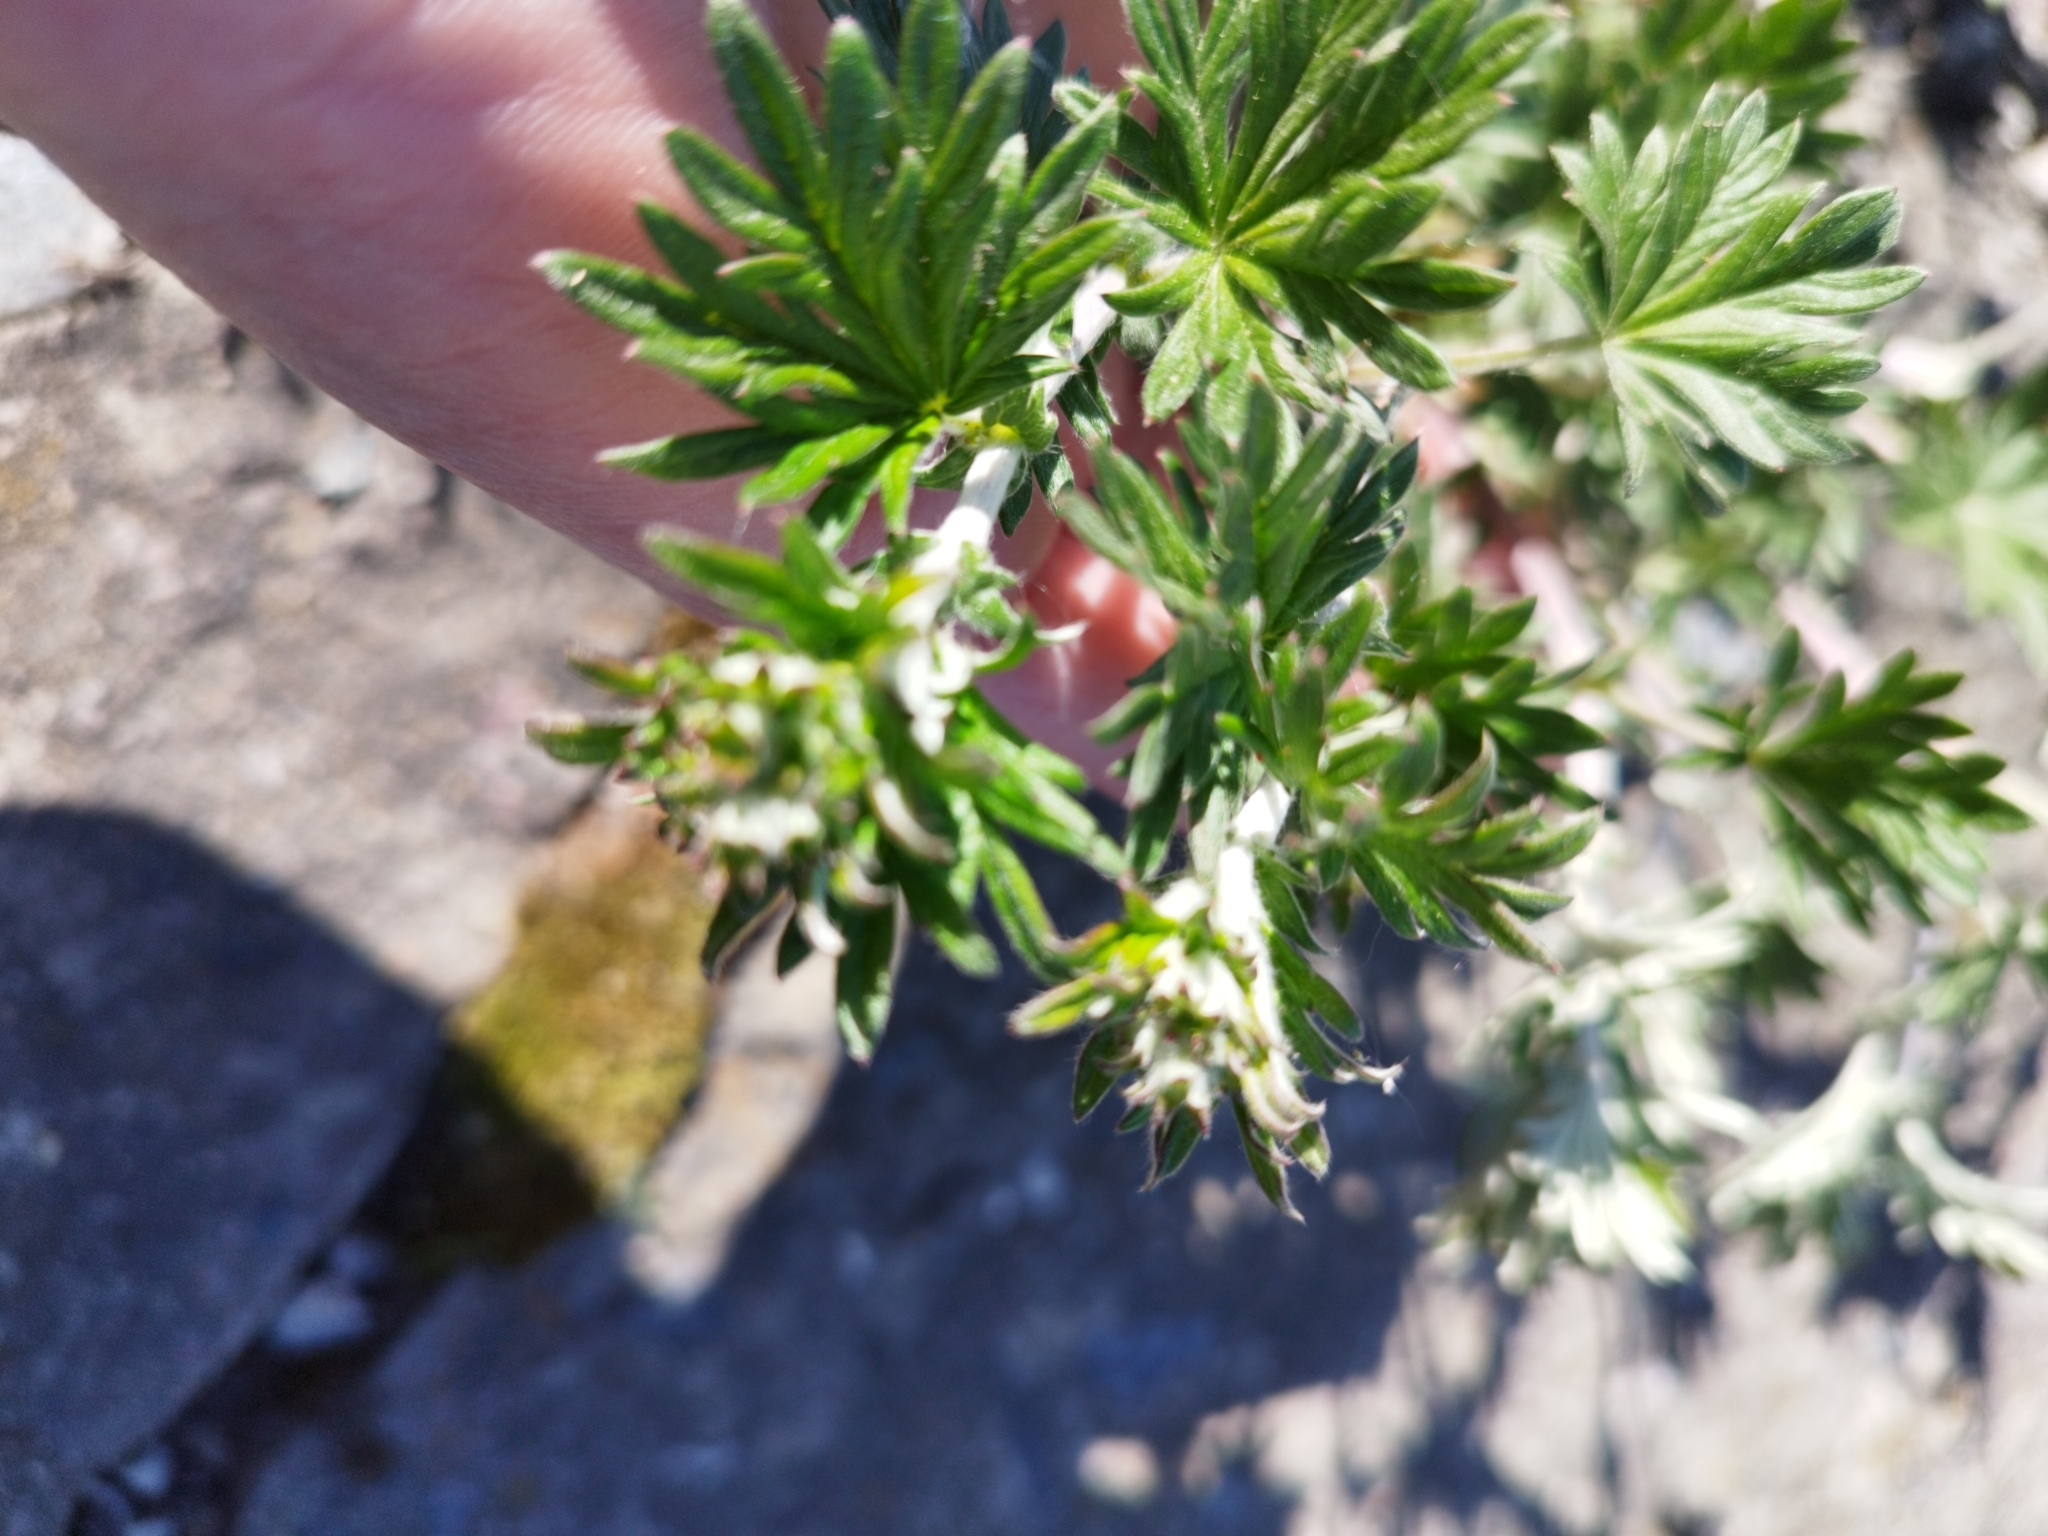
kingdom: Plantae
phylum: Tracheophyta
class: Magnoliopsida
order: Rosales
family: Rosaceae
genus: Potentilla
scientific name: Potentilla argentea
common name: Hoary cinquefoil
